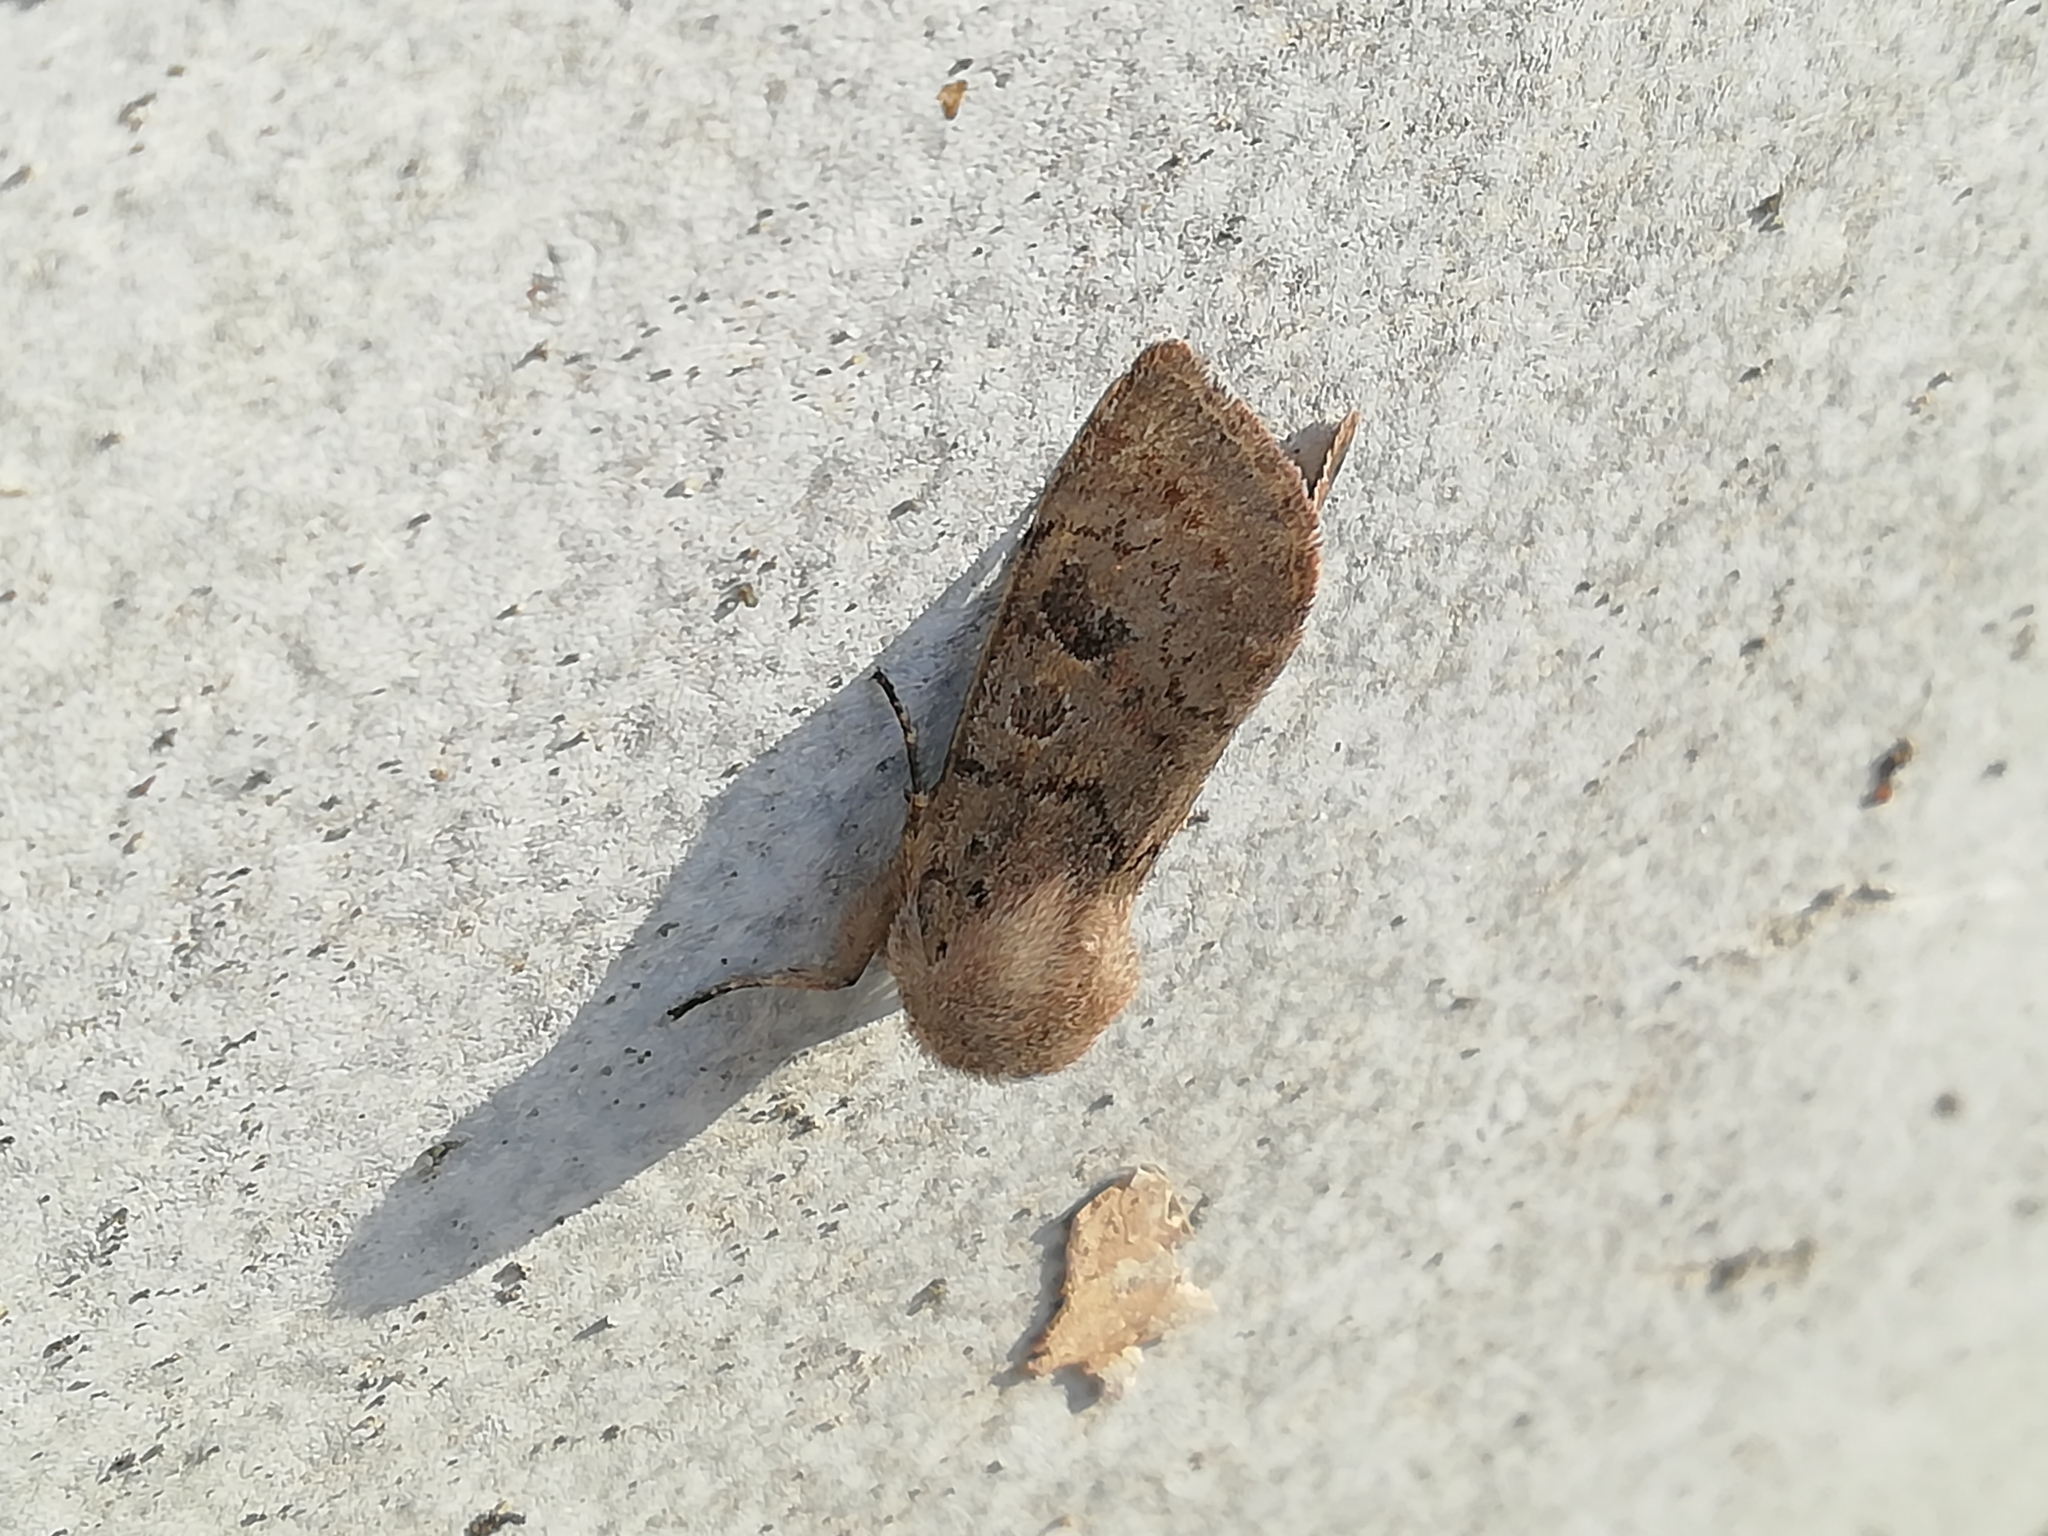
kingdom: Animalia
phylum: Arthropoda
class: Insecta
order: Lepidoptera
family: Noctuidae
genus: Orthosia
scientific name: Orthosia populeti
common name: Lead-coloured drab
